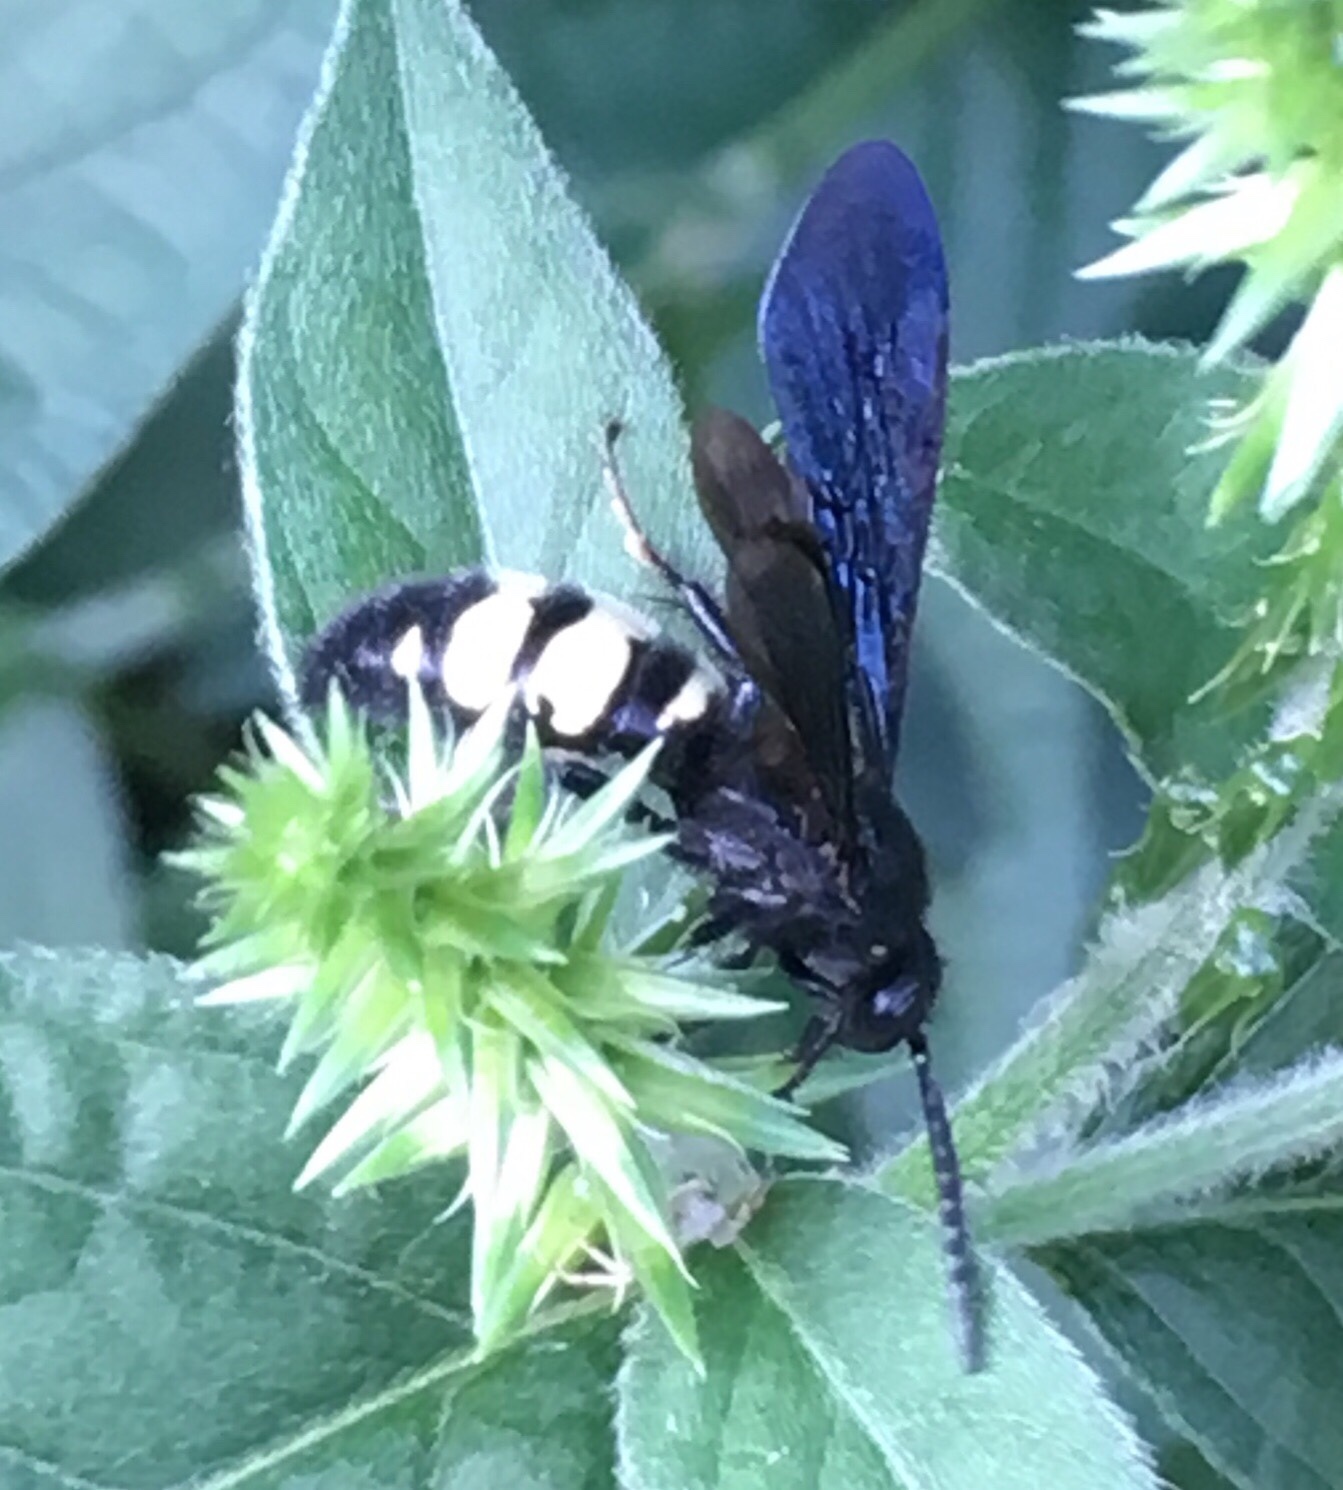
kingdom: Animalia
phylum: Arthropoda
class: Insecta
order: Hymenoptera
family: Scoliidae
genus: Scolia
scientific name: Scolia bicincta
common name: Double-banded scoliid wasp
